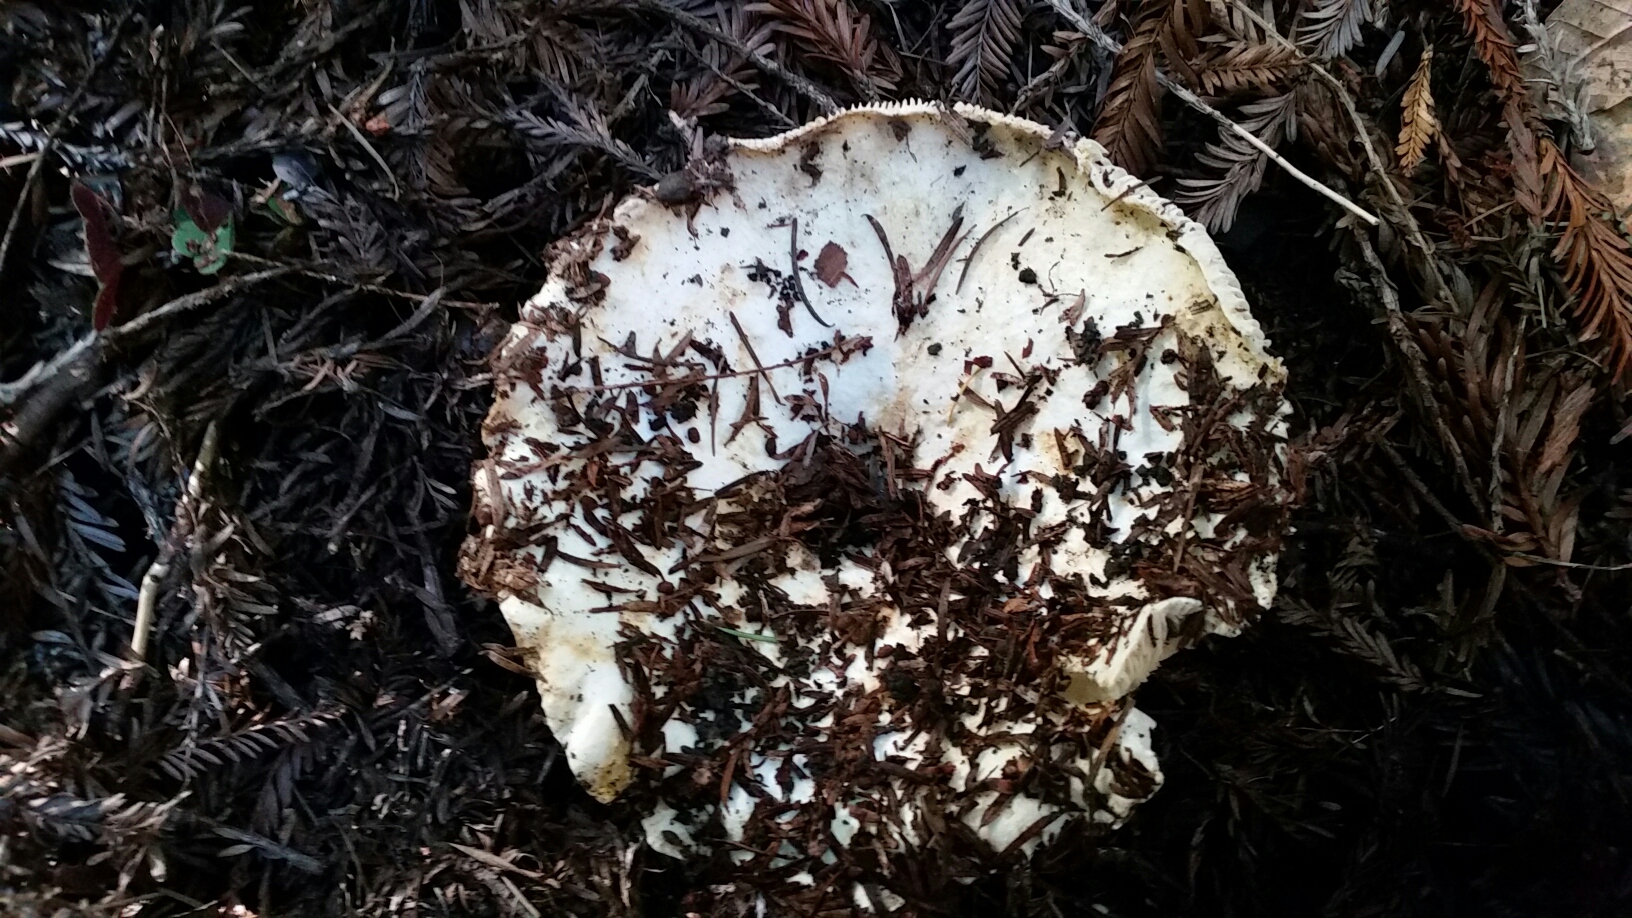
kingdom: Fungi
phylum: Basidiomycota
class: Agaricomycetes
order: Russulales
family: Russulaceae
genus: Russula
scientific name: Russula brevipes
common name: Short-stemmed russula
